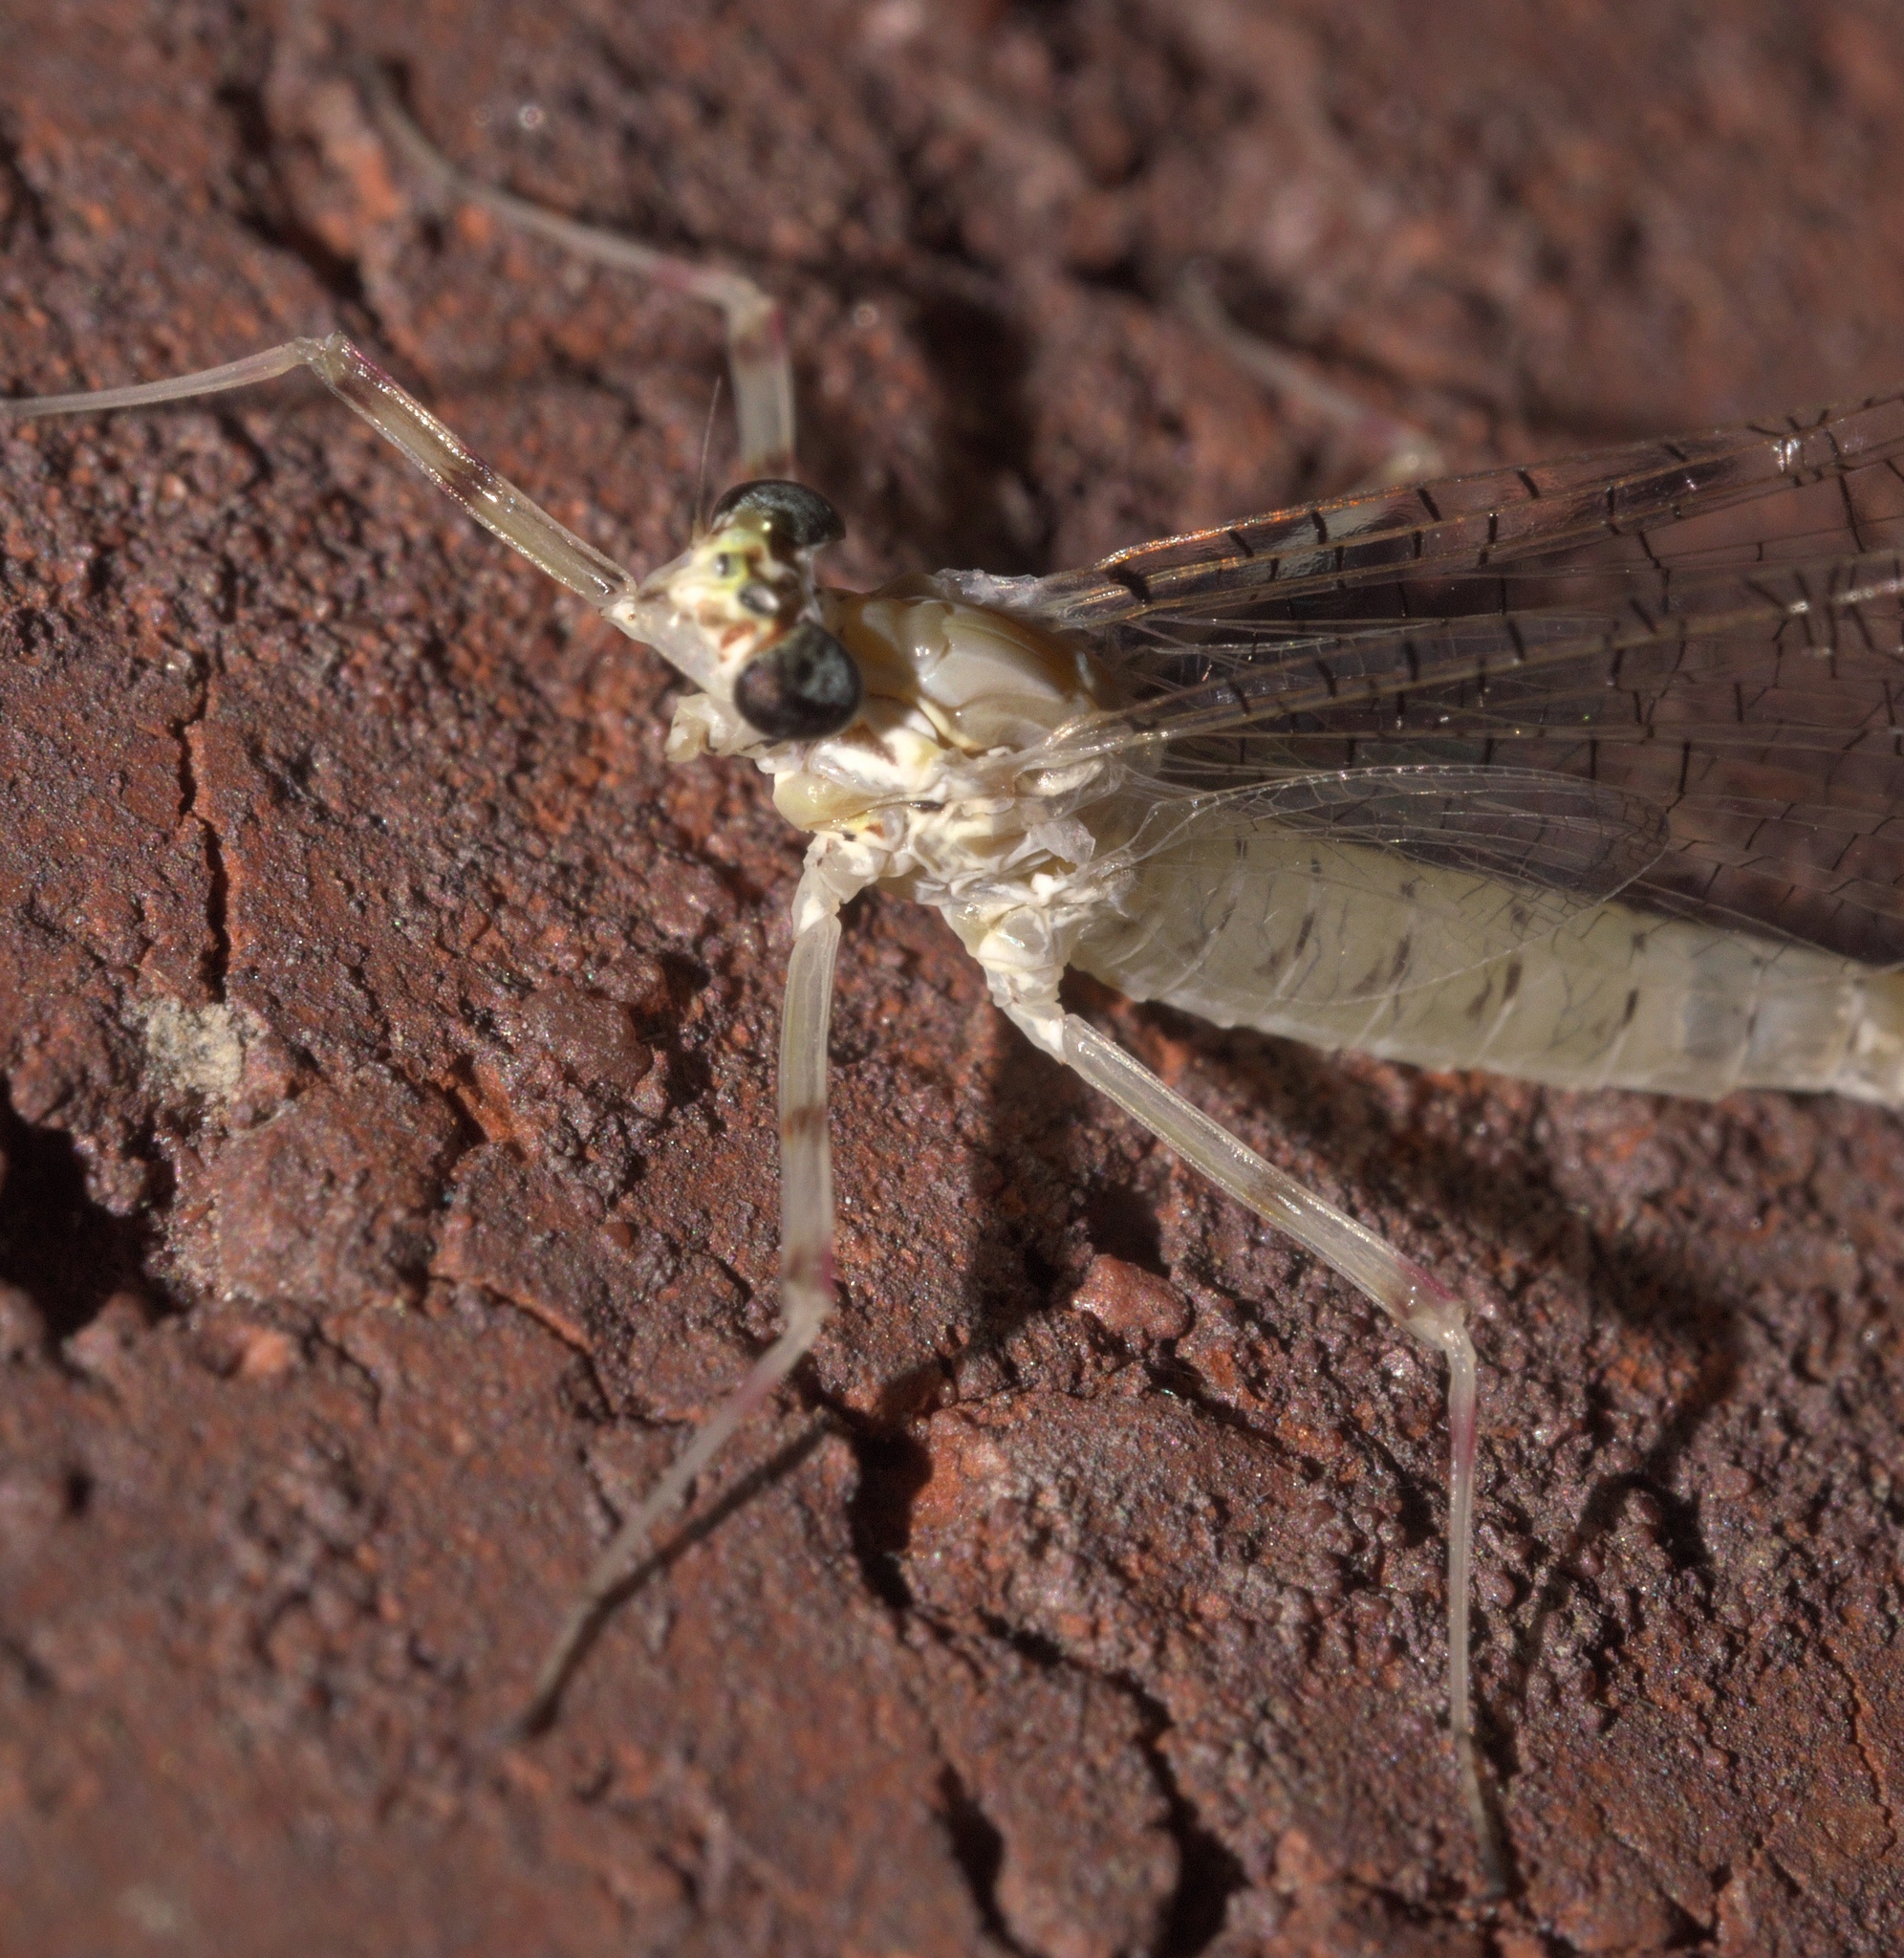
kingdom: Animalia
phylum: Arthropoda
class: Insecta
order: Ephemeroptera
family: Heptageniidae
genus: Maccaffertium
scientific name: Maccaffertium terminatum
